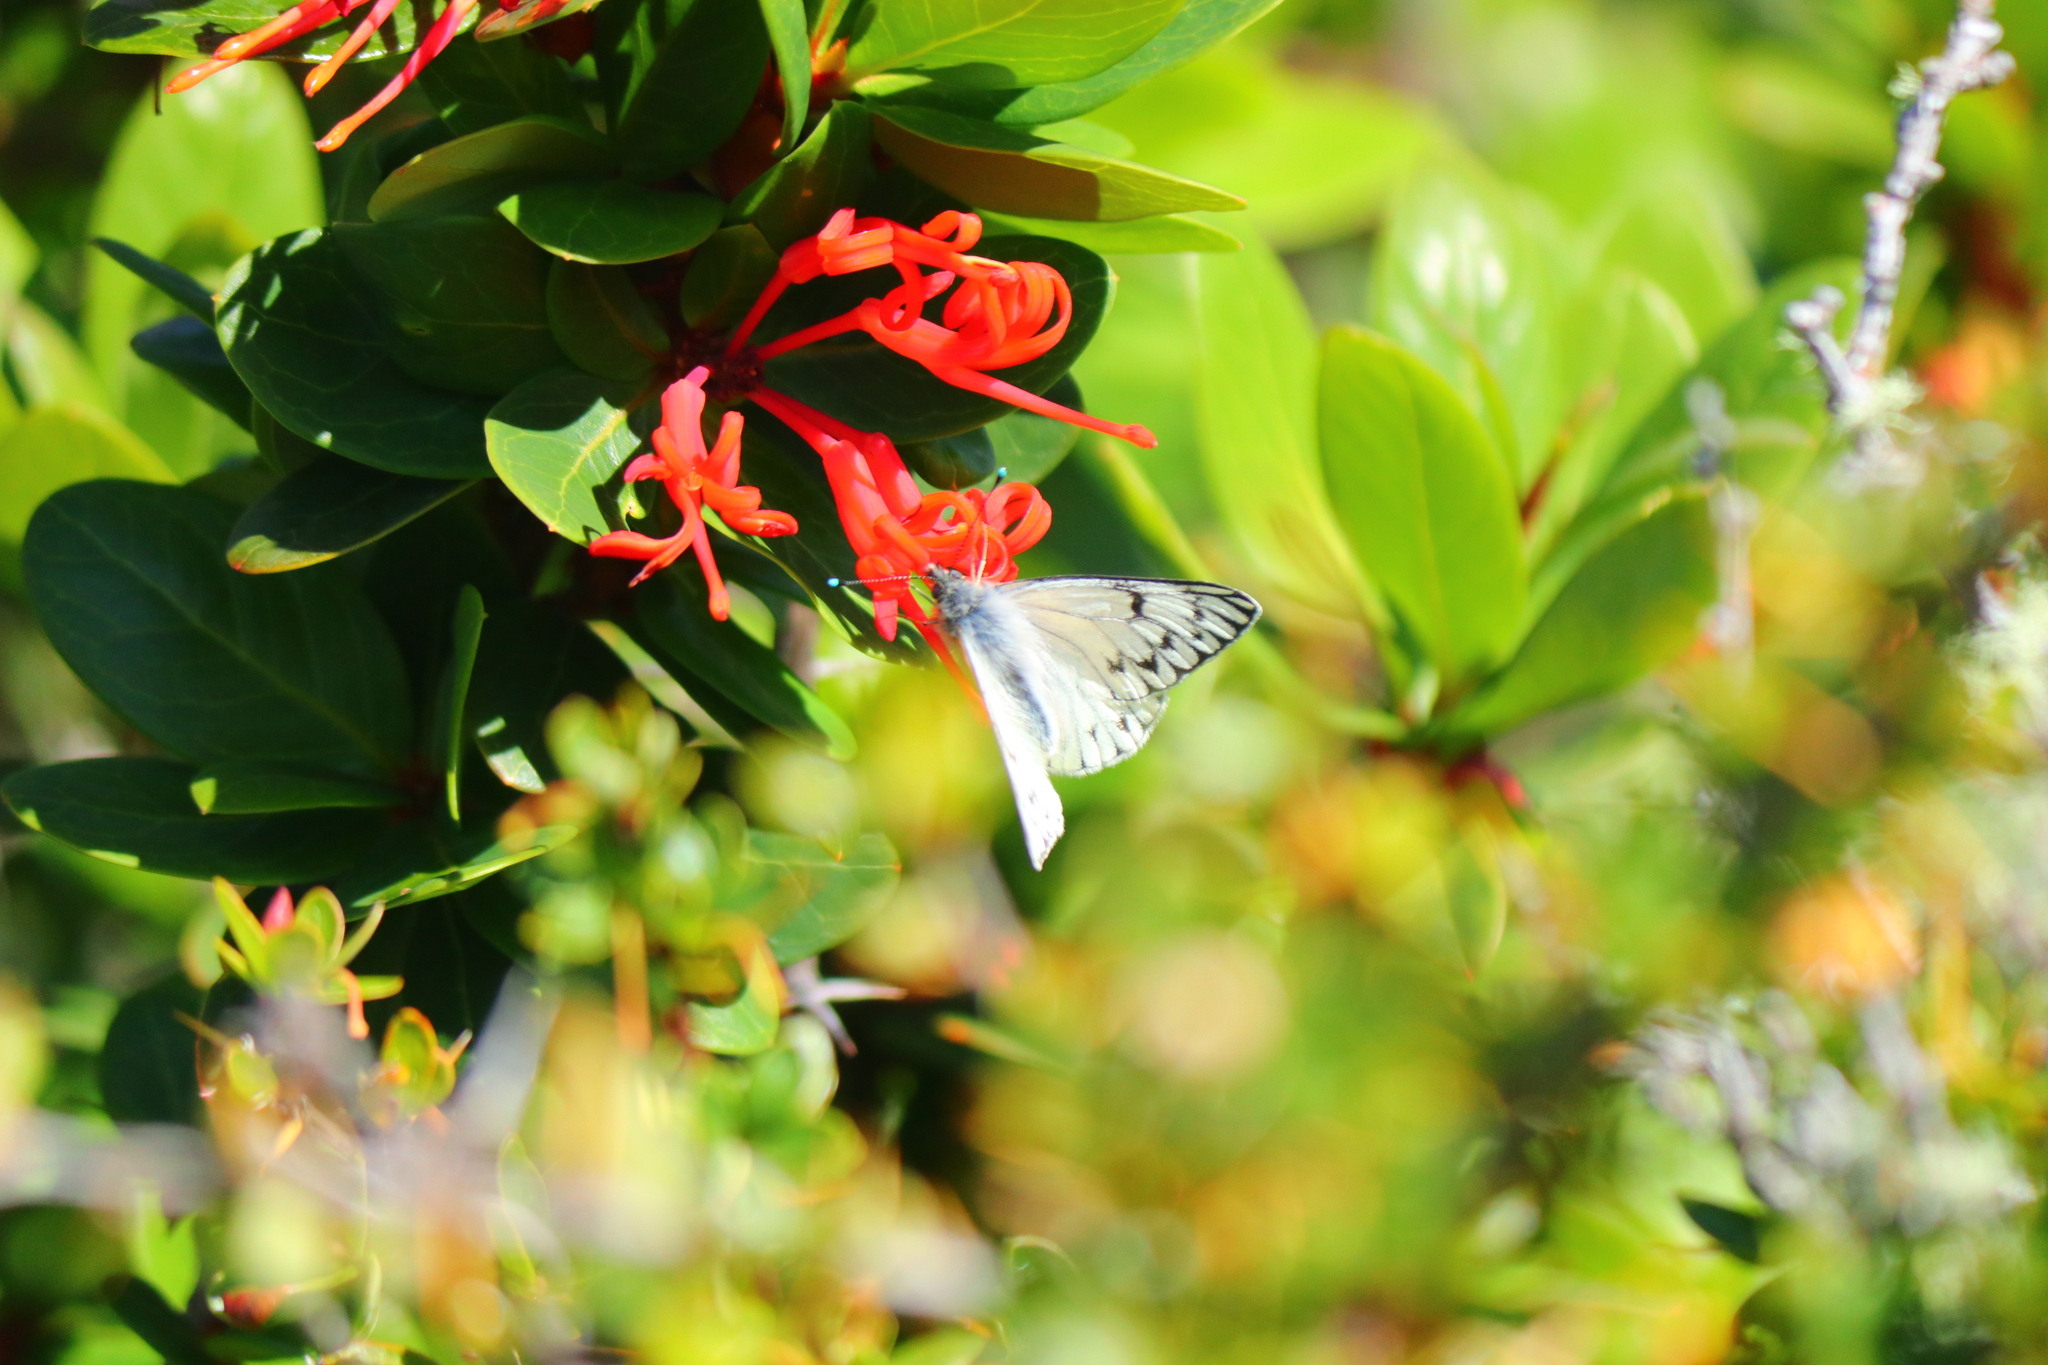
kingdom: Animalia
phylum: Arthropoda
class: Insecta
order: Lepidoptera
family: Pieridae
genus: Tatochila
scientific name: Tatochila theodice
